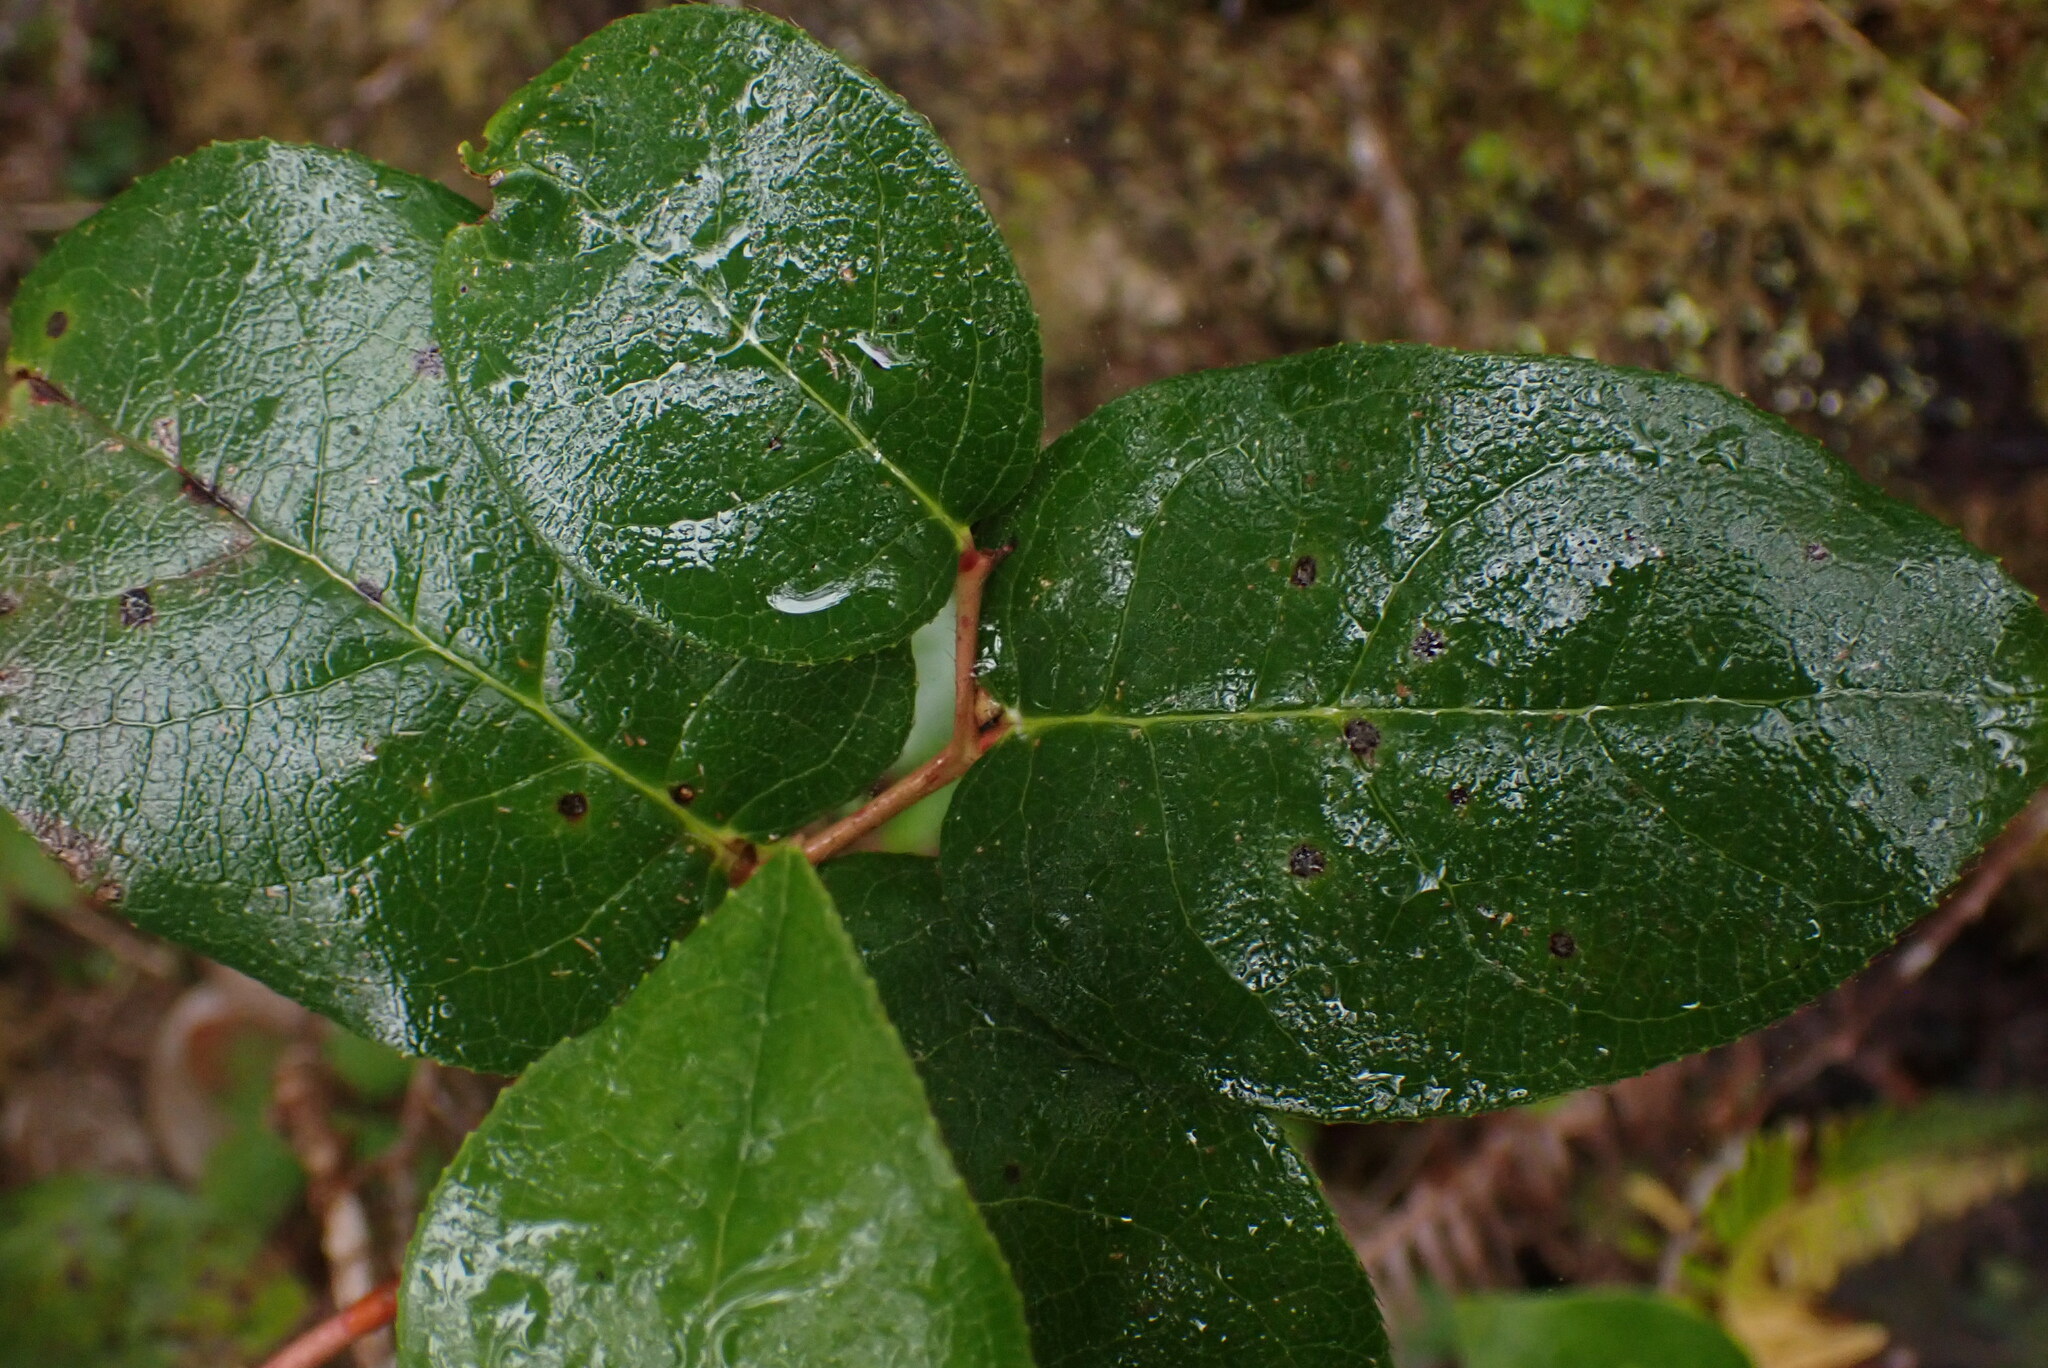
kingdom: Plantae
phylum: Tracheophyta
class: Magnoliopsida
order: Ericales
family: Ericaceae
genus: Gaultheria
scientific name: Gaultheria shallon
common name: Shallon
